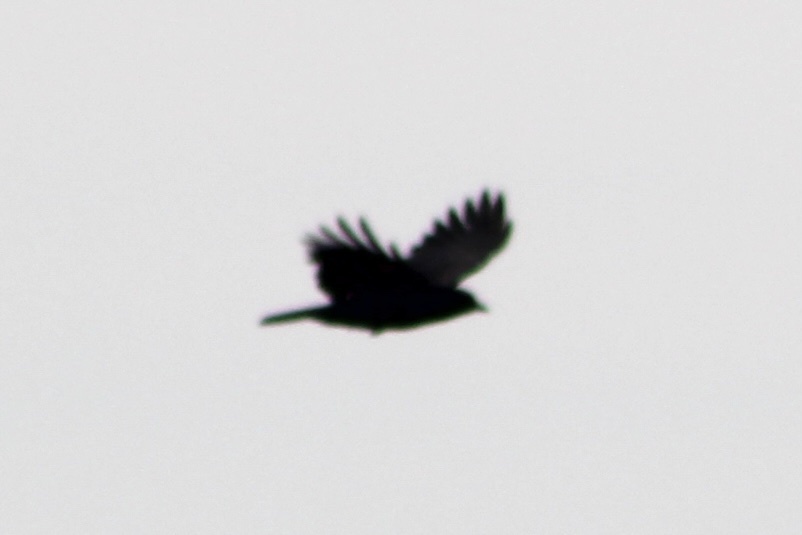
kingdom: Animalia
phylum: Chordata
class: Aves
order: Passeriformes
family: Corvidae
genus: Corvus
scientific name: Corvus brachyrhynchos
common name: American crow
